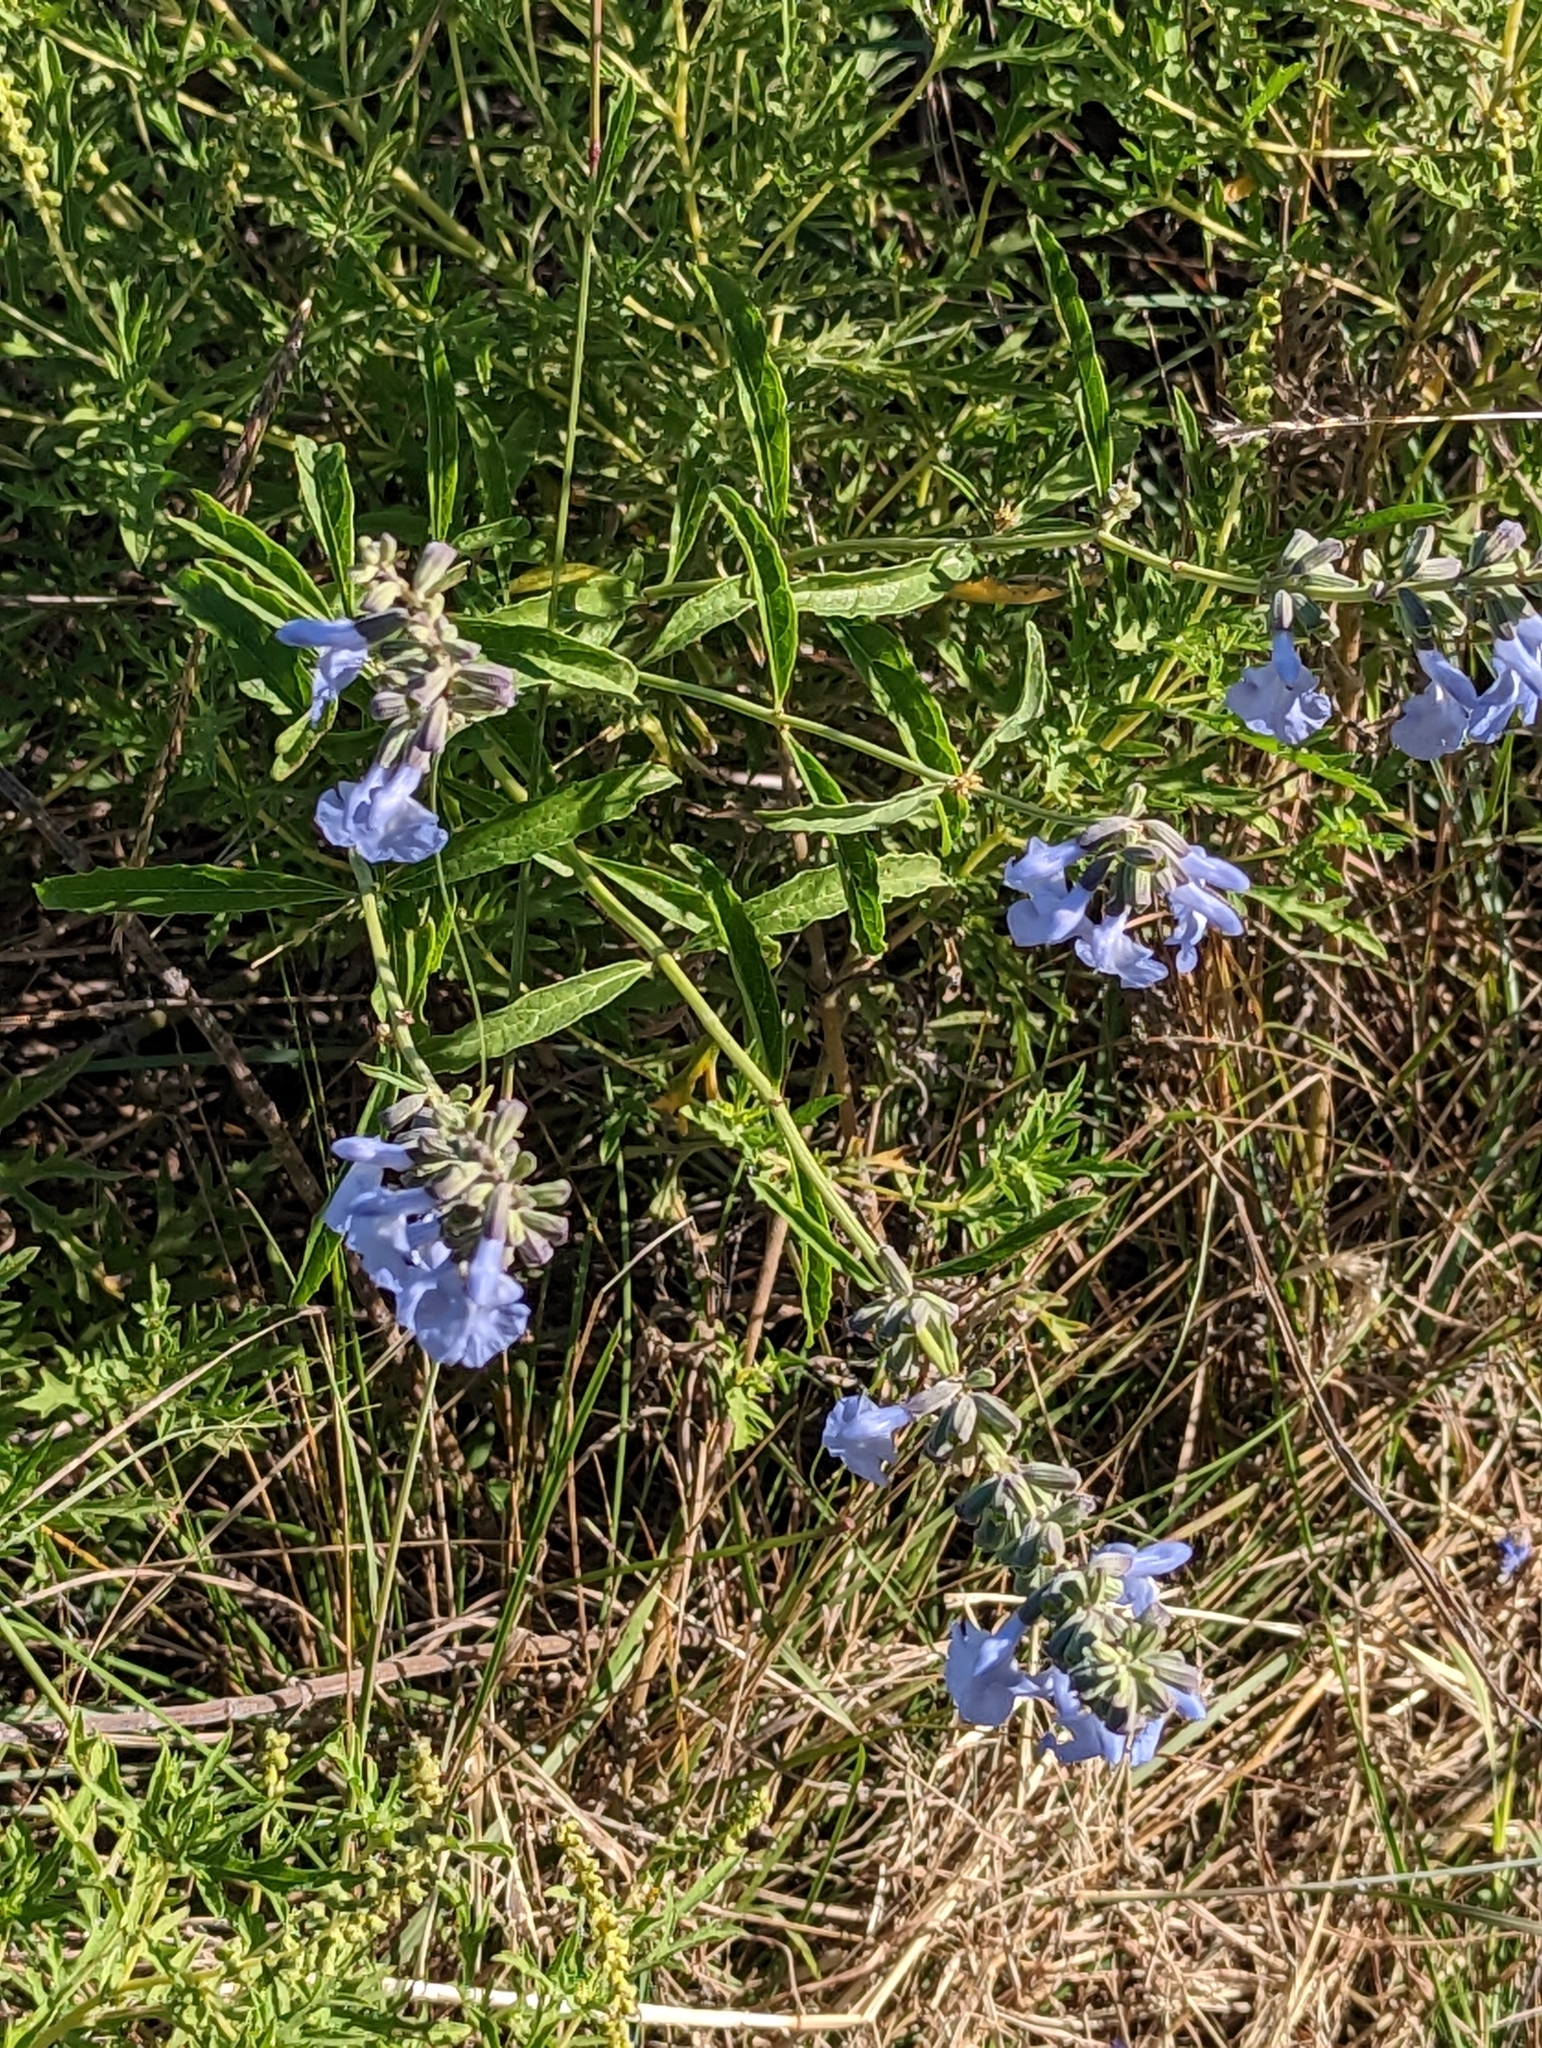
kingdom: Plantae
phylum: Tracheophyta
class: Magnoliopsida
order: Lamiales
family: Lamiaceae
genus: Salvia
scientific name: Salvia azurea
